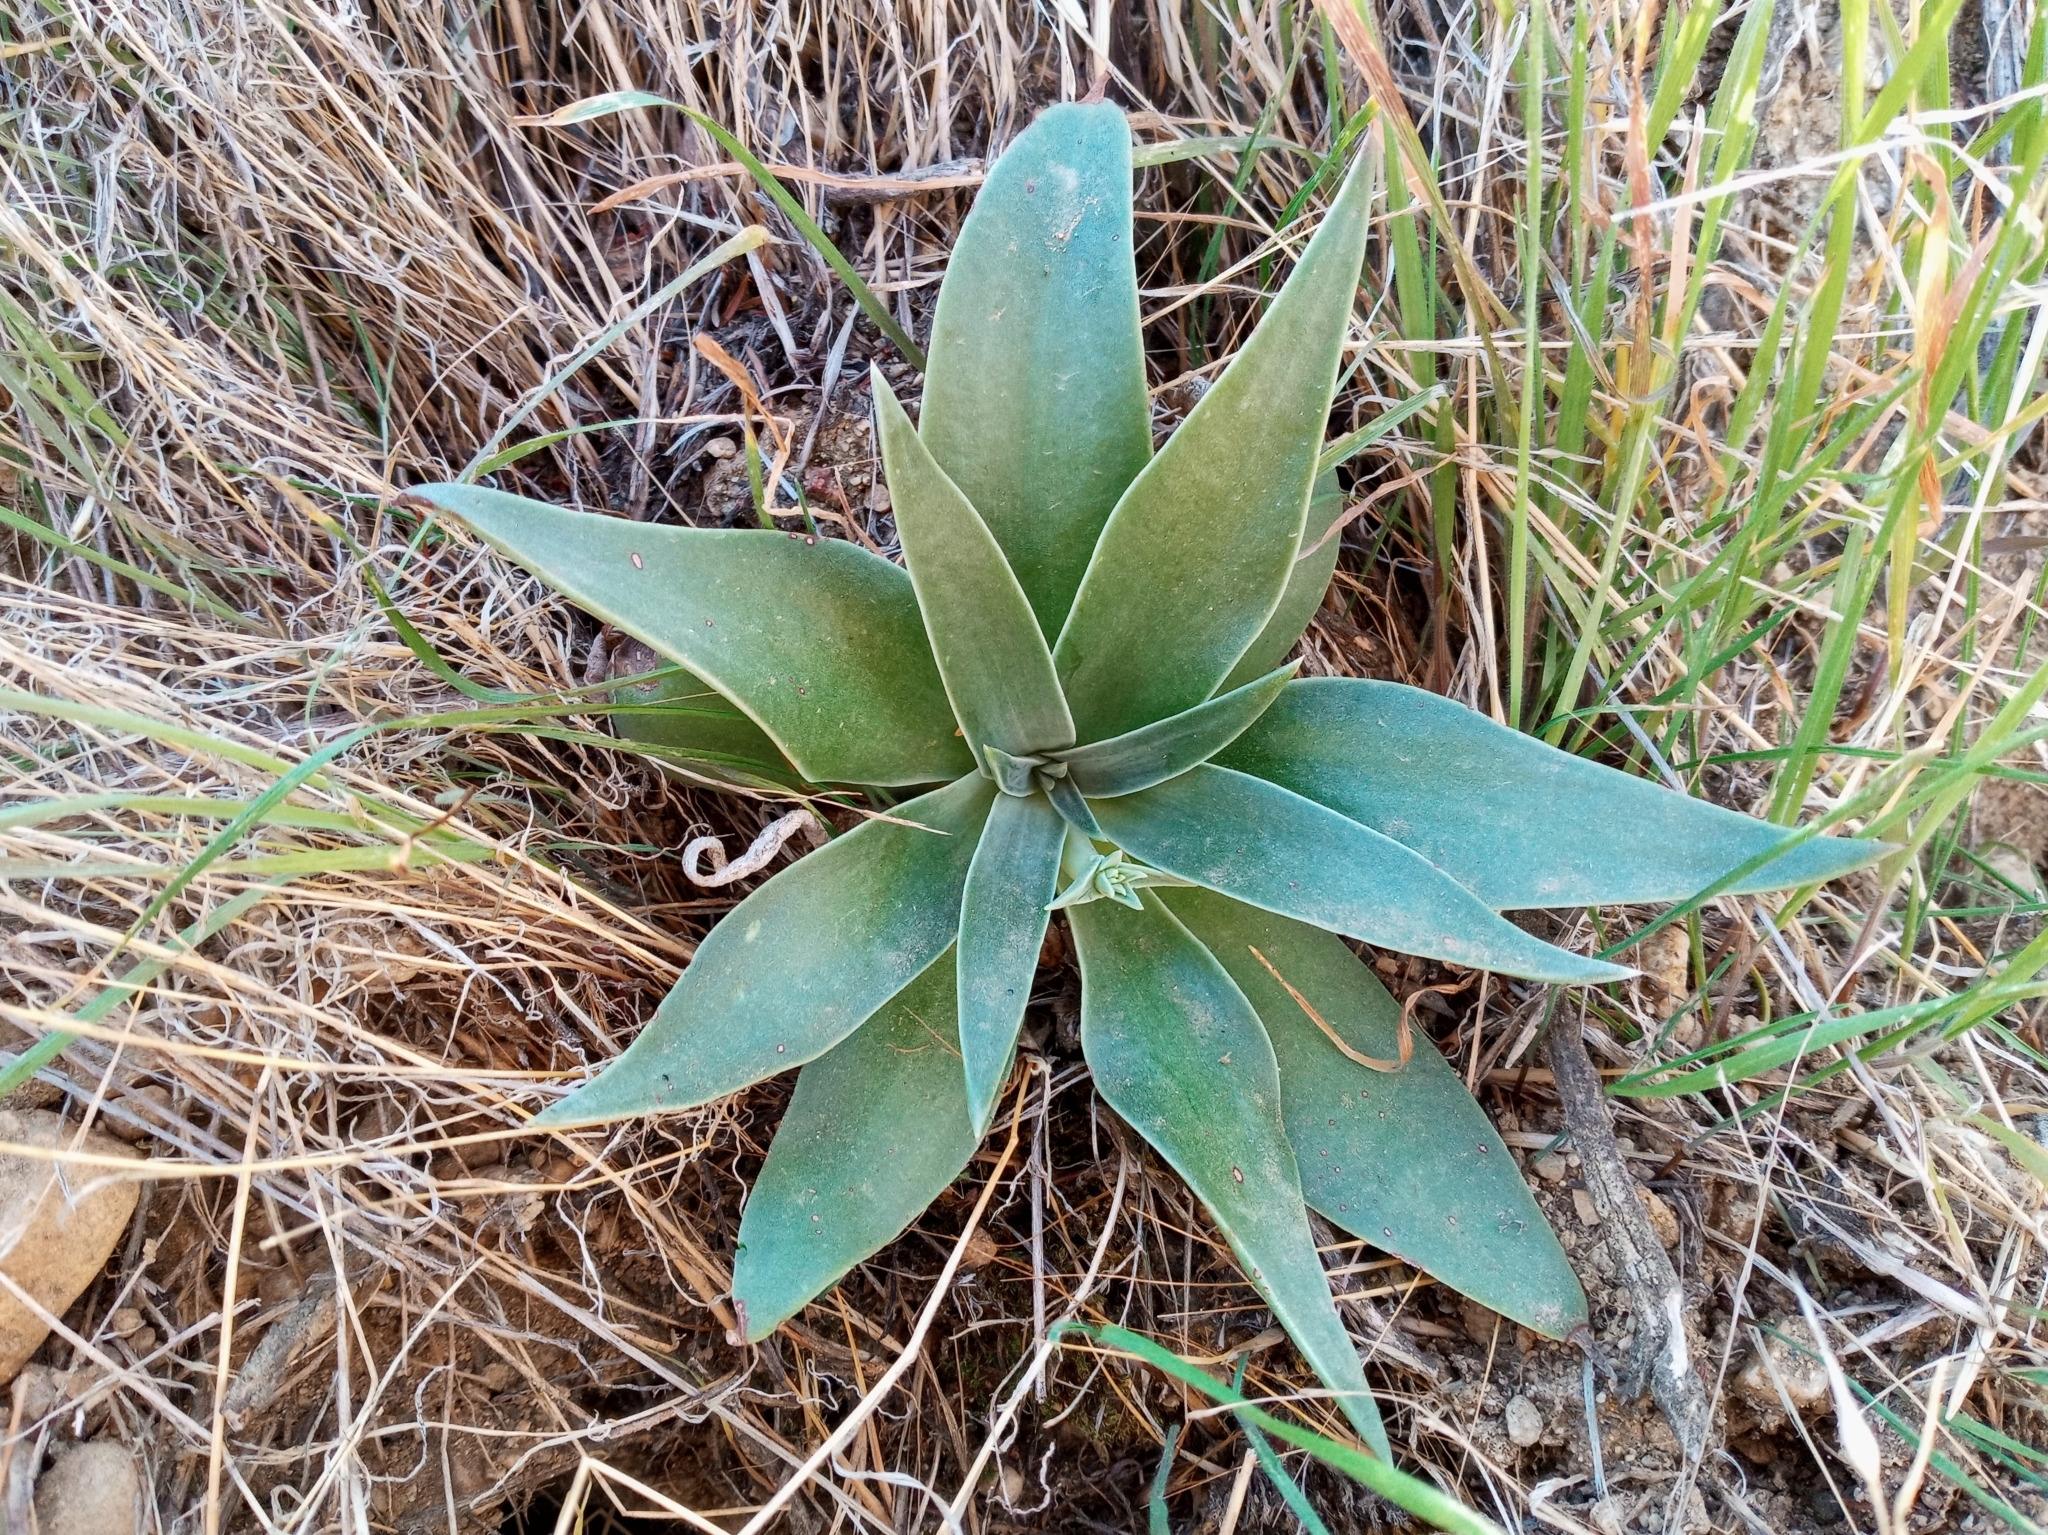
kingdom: Plantae
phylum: Tracheophyta
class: Magnoliopsida
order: Saxifragales
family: Crassulaceae
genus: Dudleya
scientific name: Dudleya lanceolata
